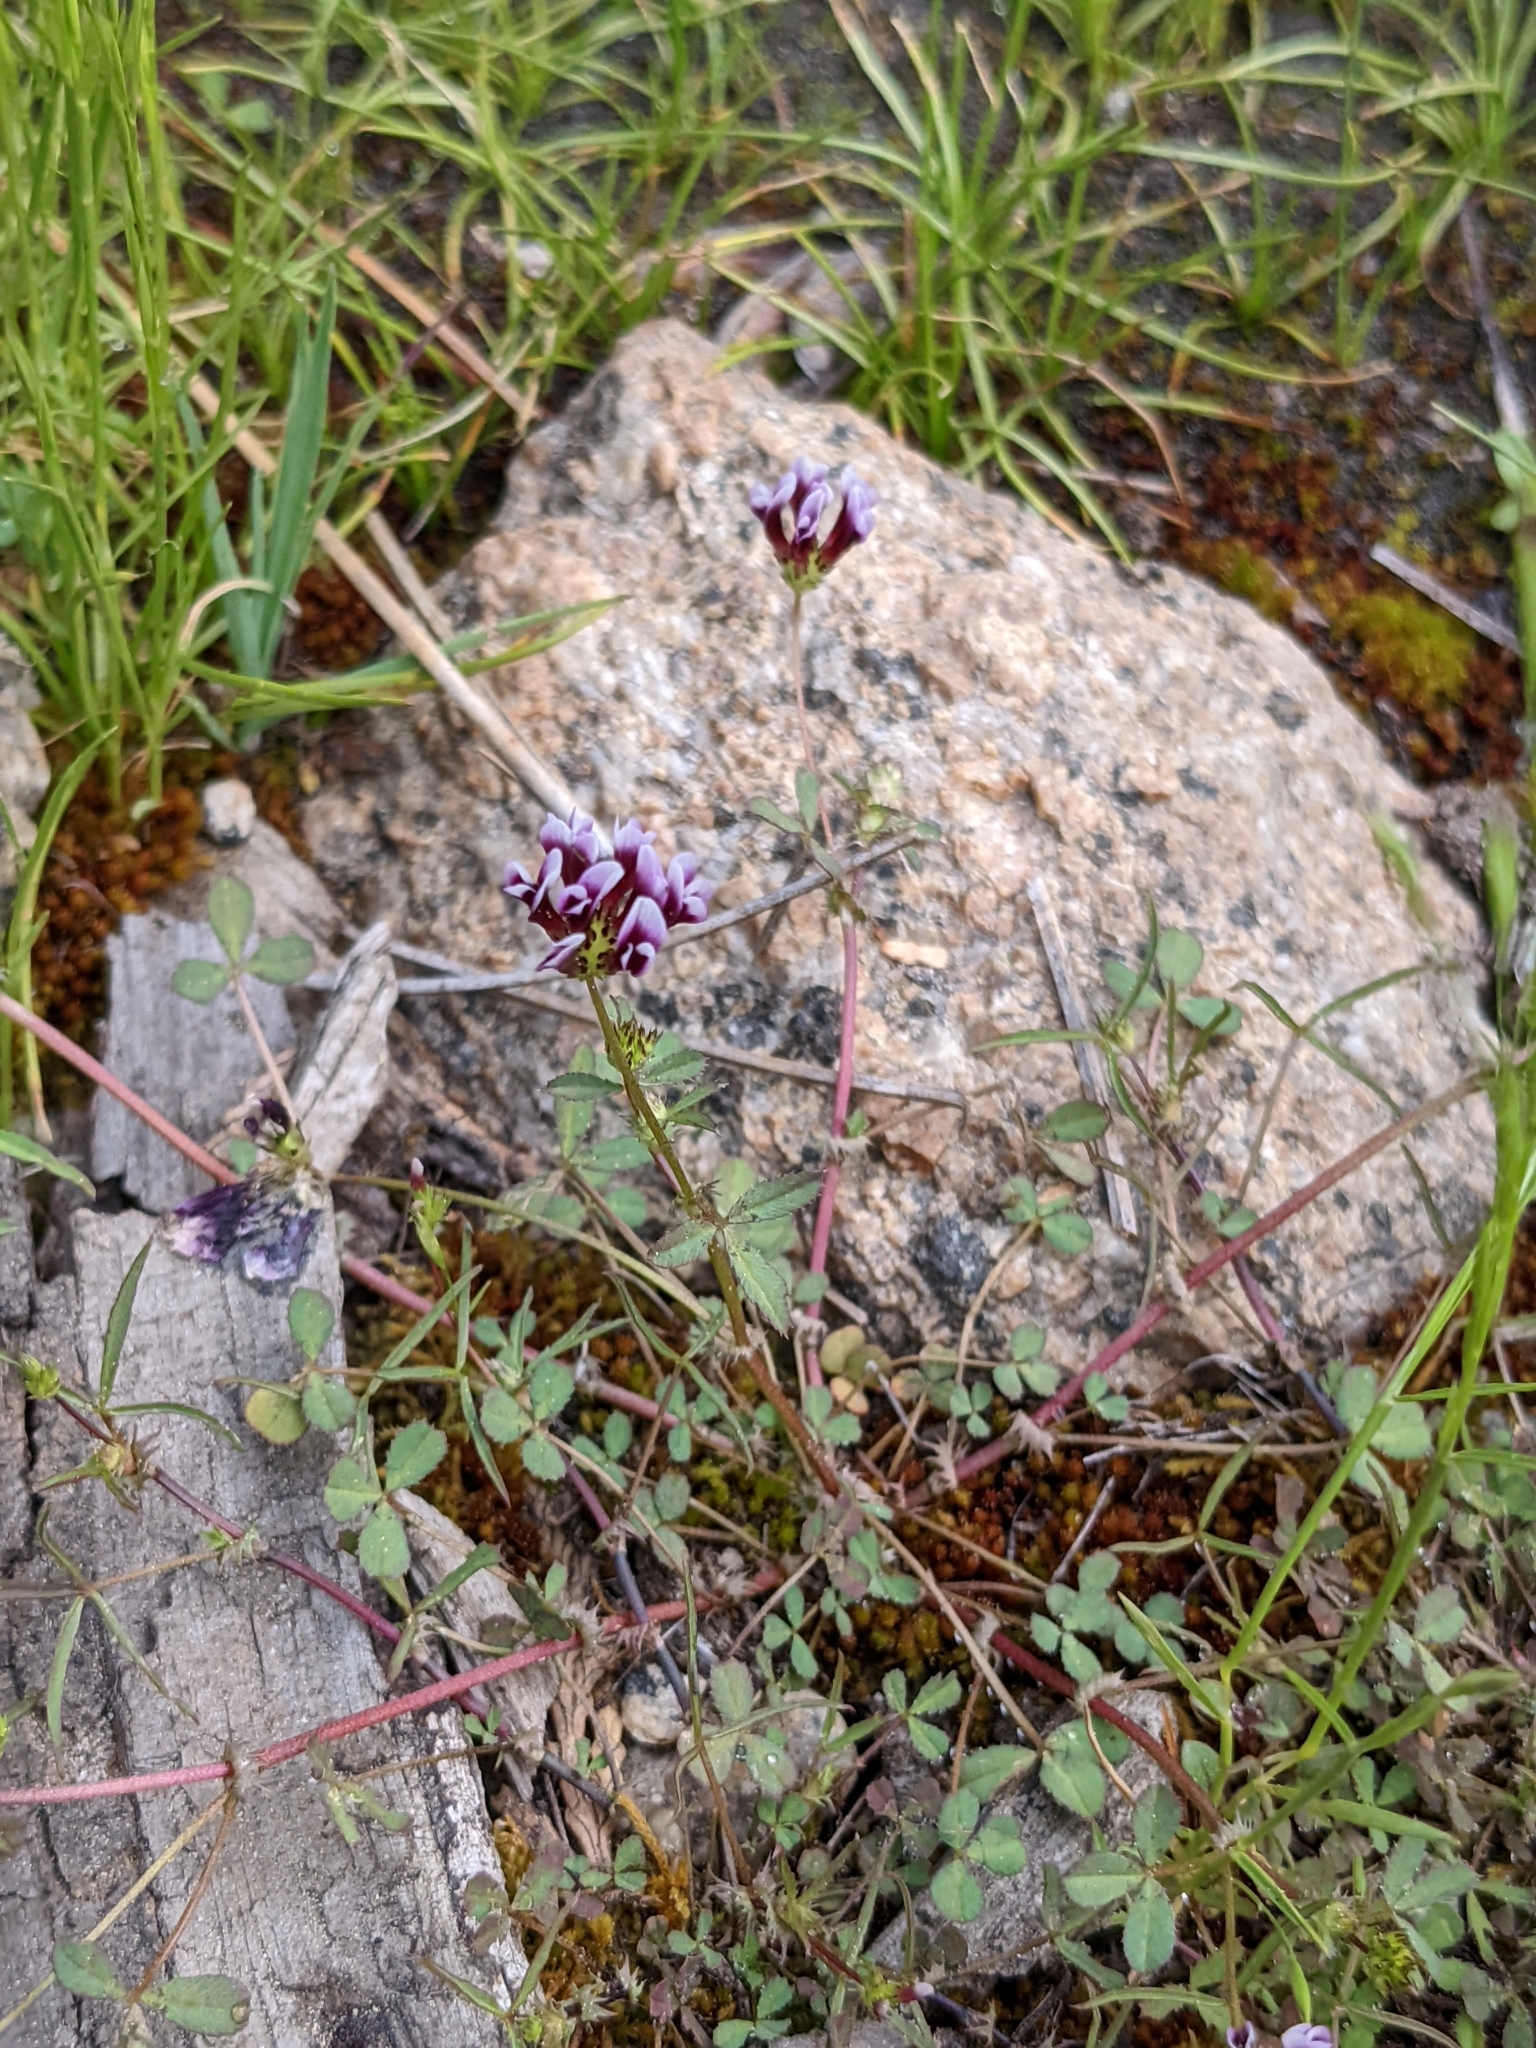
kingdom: Plantae
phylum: Tracheophyta
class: Magnoliopsida
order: Fabales
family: Fabaceae
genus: Trifolium
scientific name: Trifolium variegatum
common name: Whitetip clover
